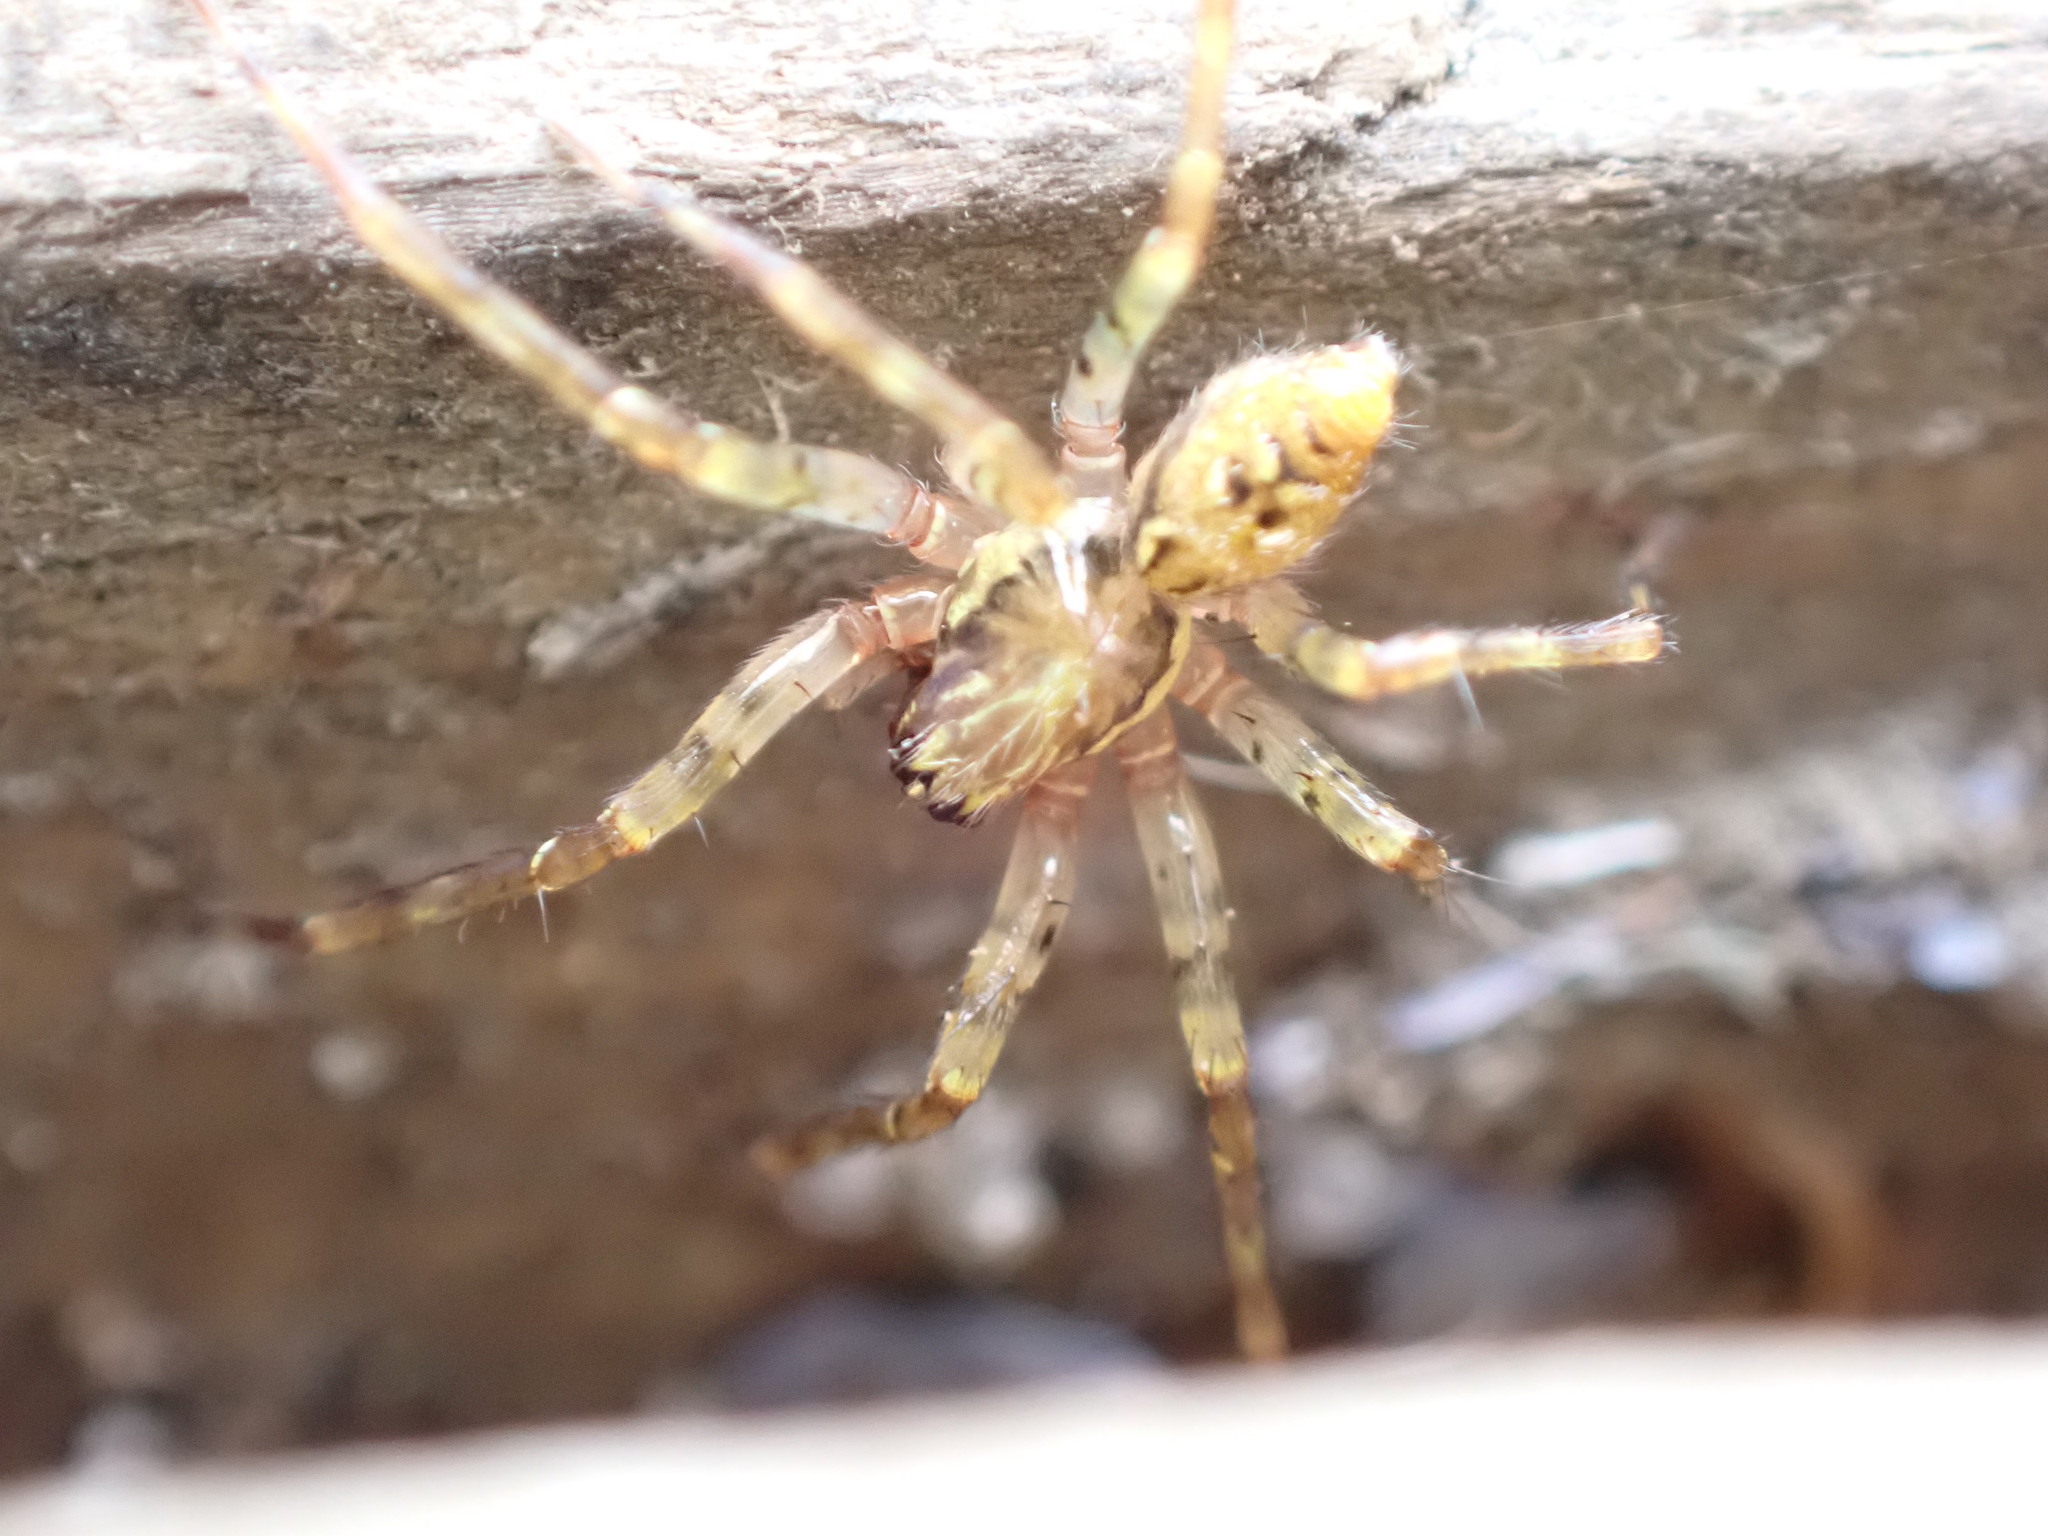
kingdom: Animalia
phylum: Arthropoda
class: Arachnida
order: Araneae
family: Cybaeidae
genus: Dirksia
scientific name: Dirksia cinctipes
